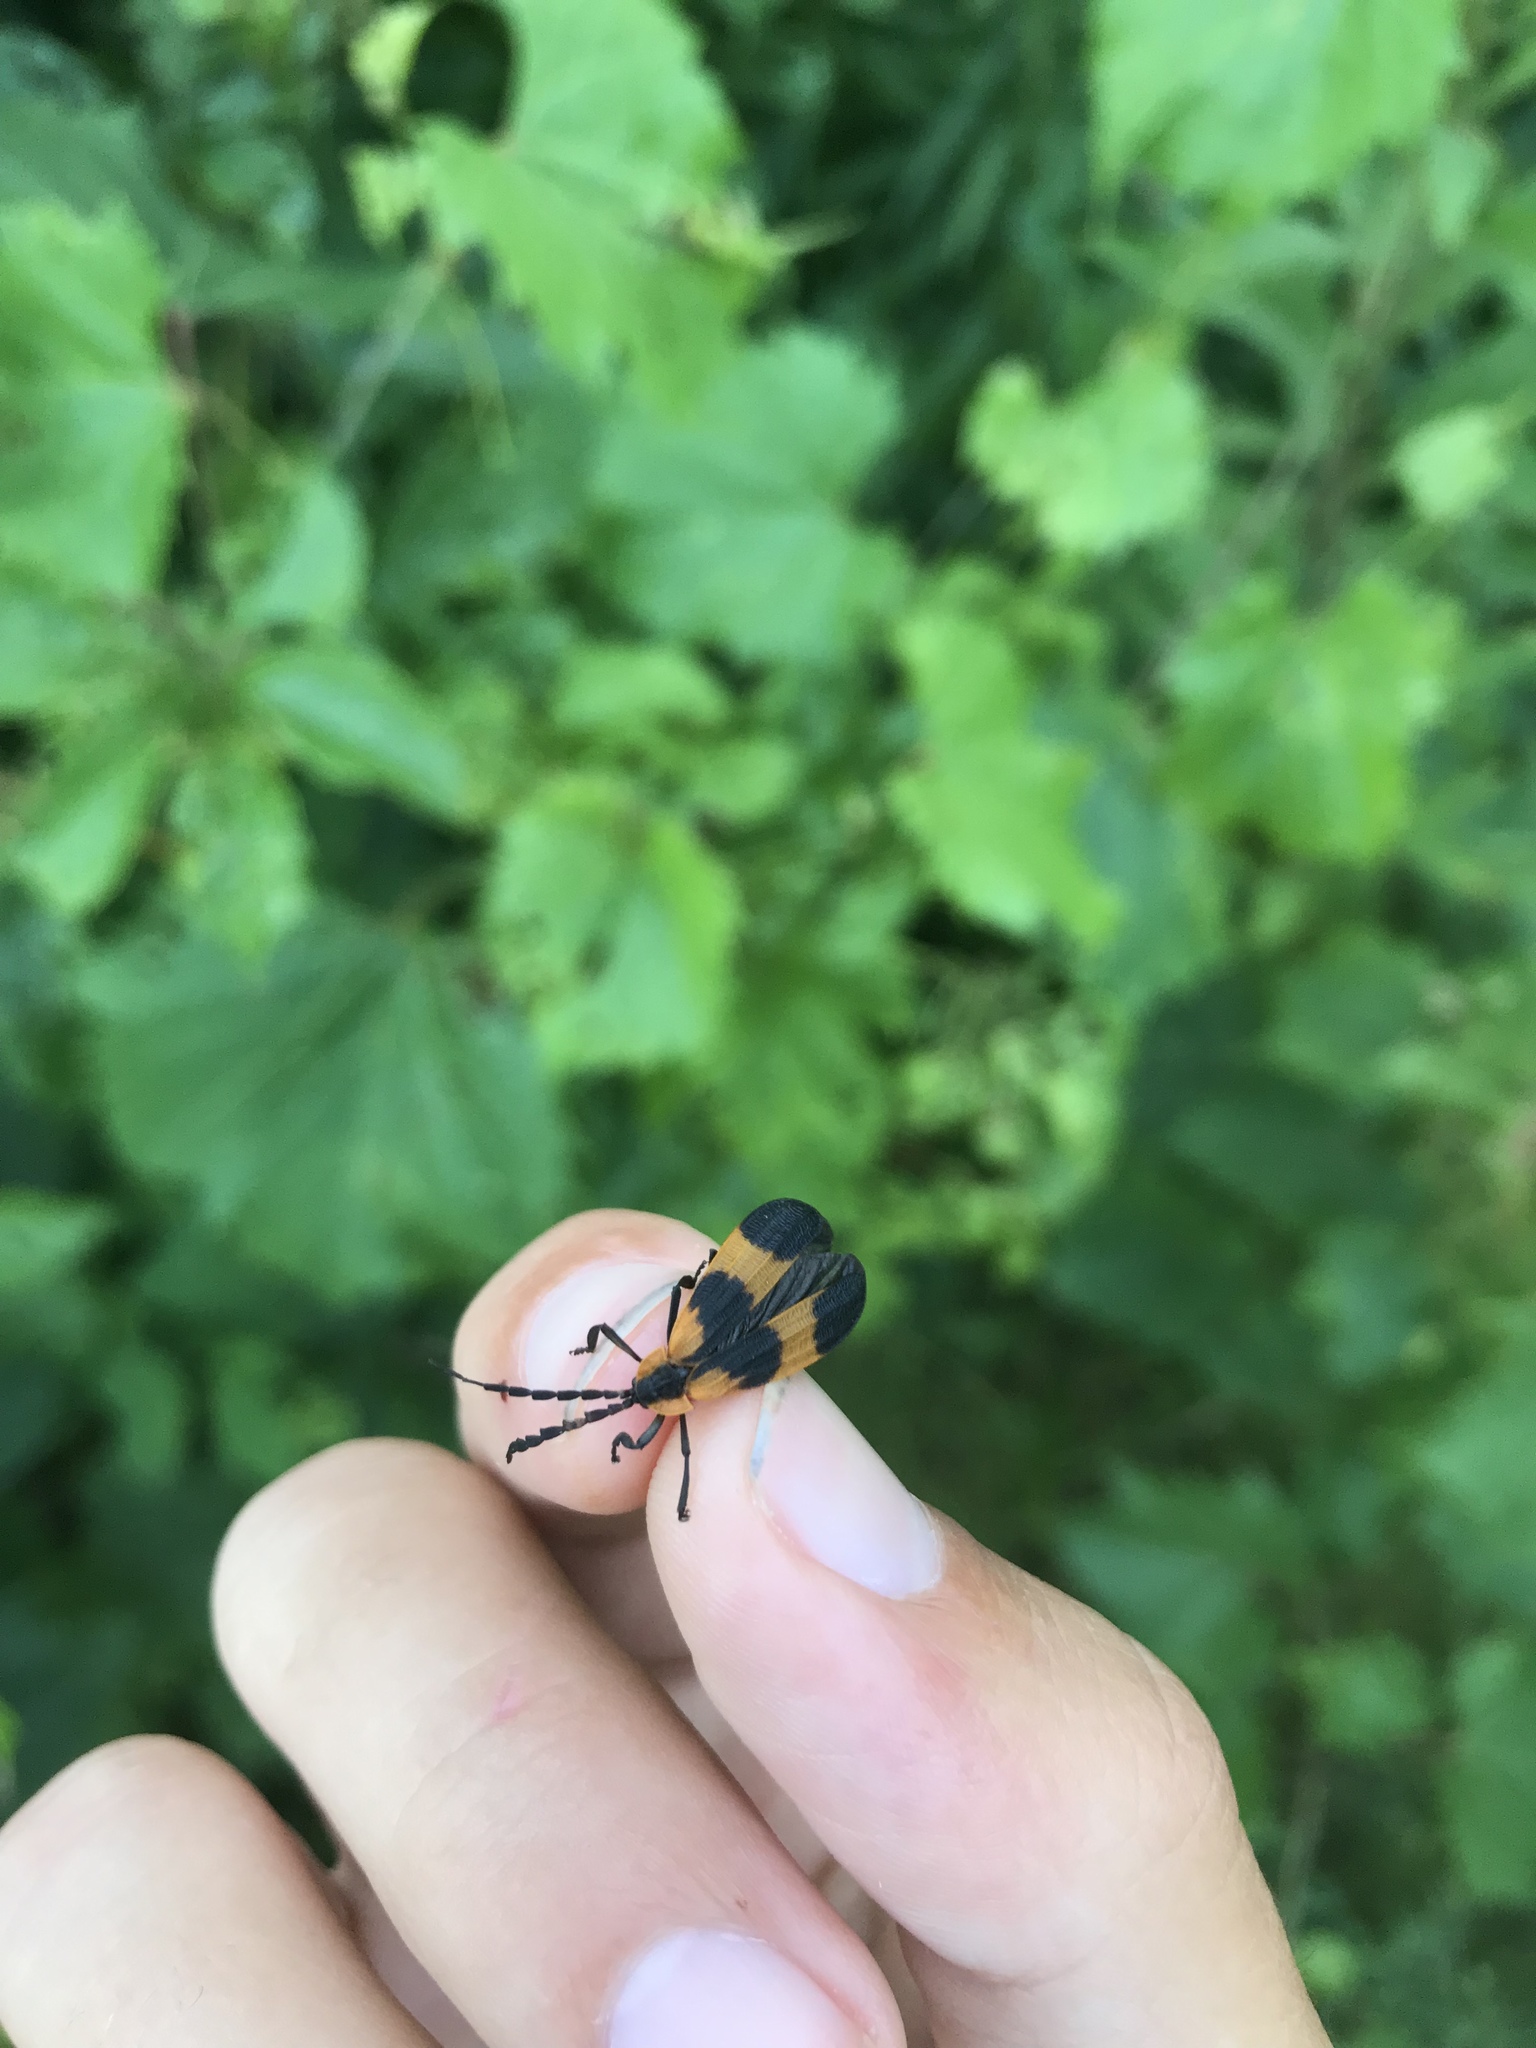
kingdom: Animalia
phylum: Arthropoda
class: Insecta
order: Coleoptera
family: Lycidae
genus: Calopteron
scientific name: Calopteron reticulatum
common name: Banded net-winged beetle
